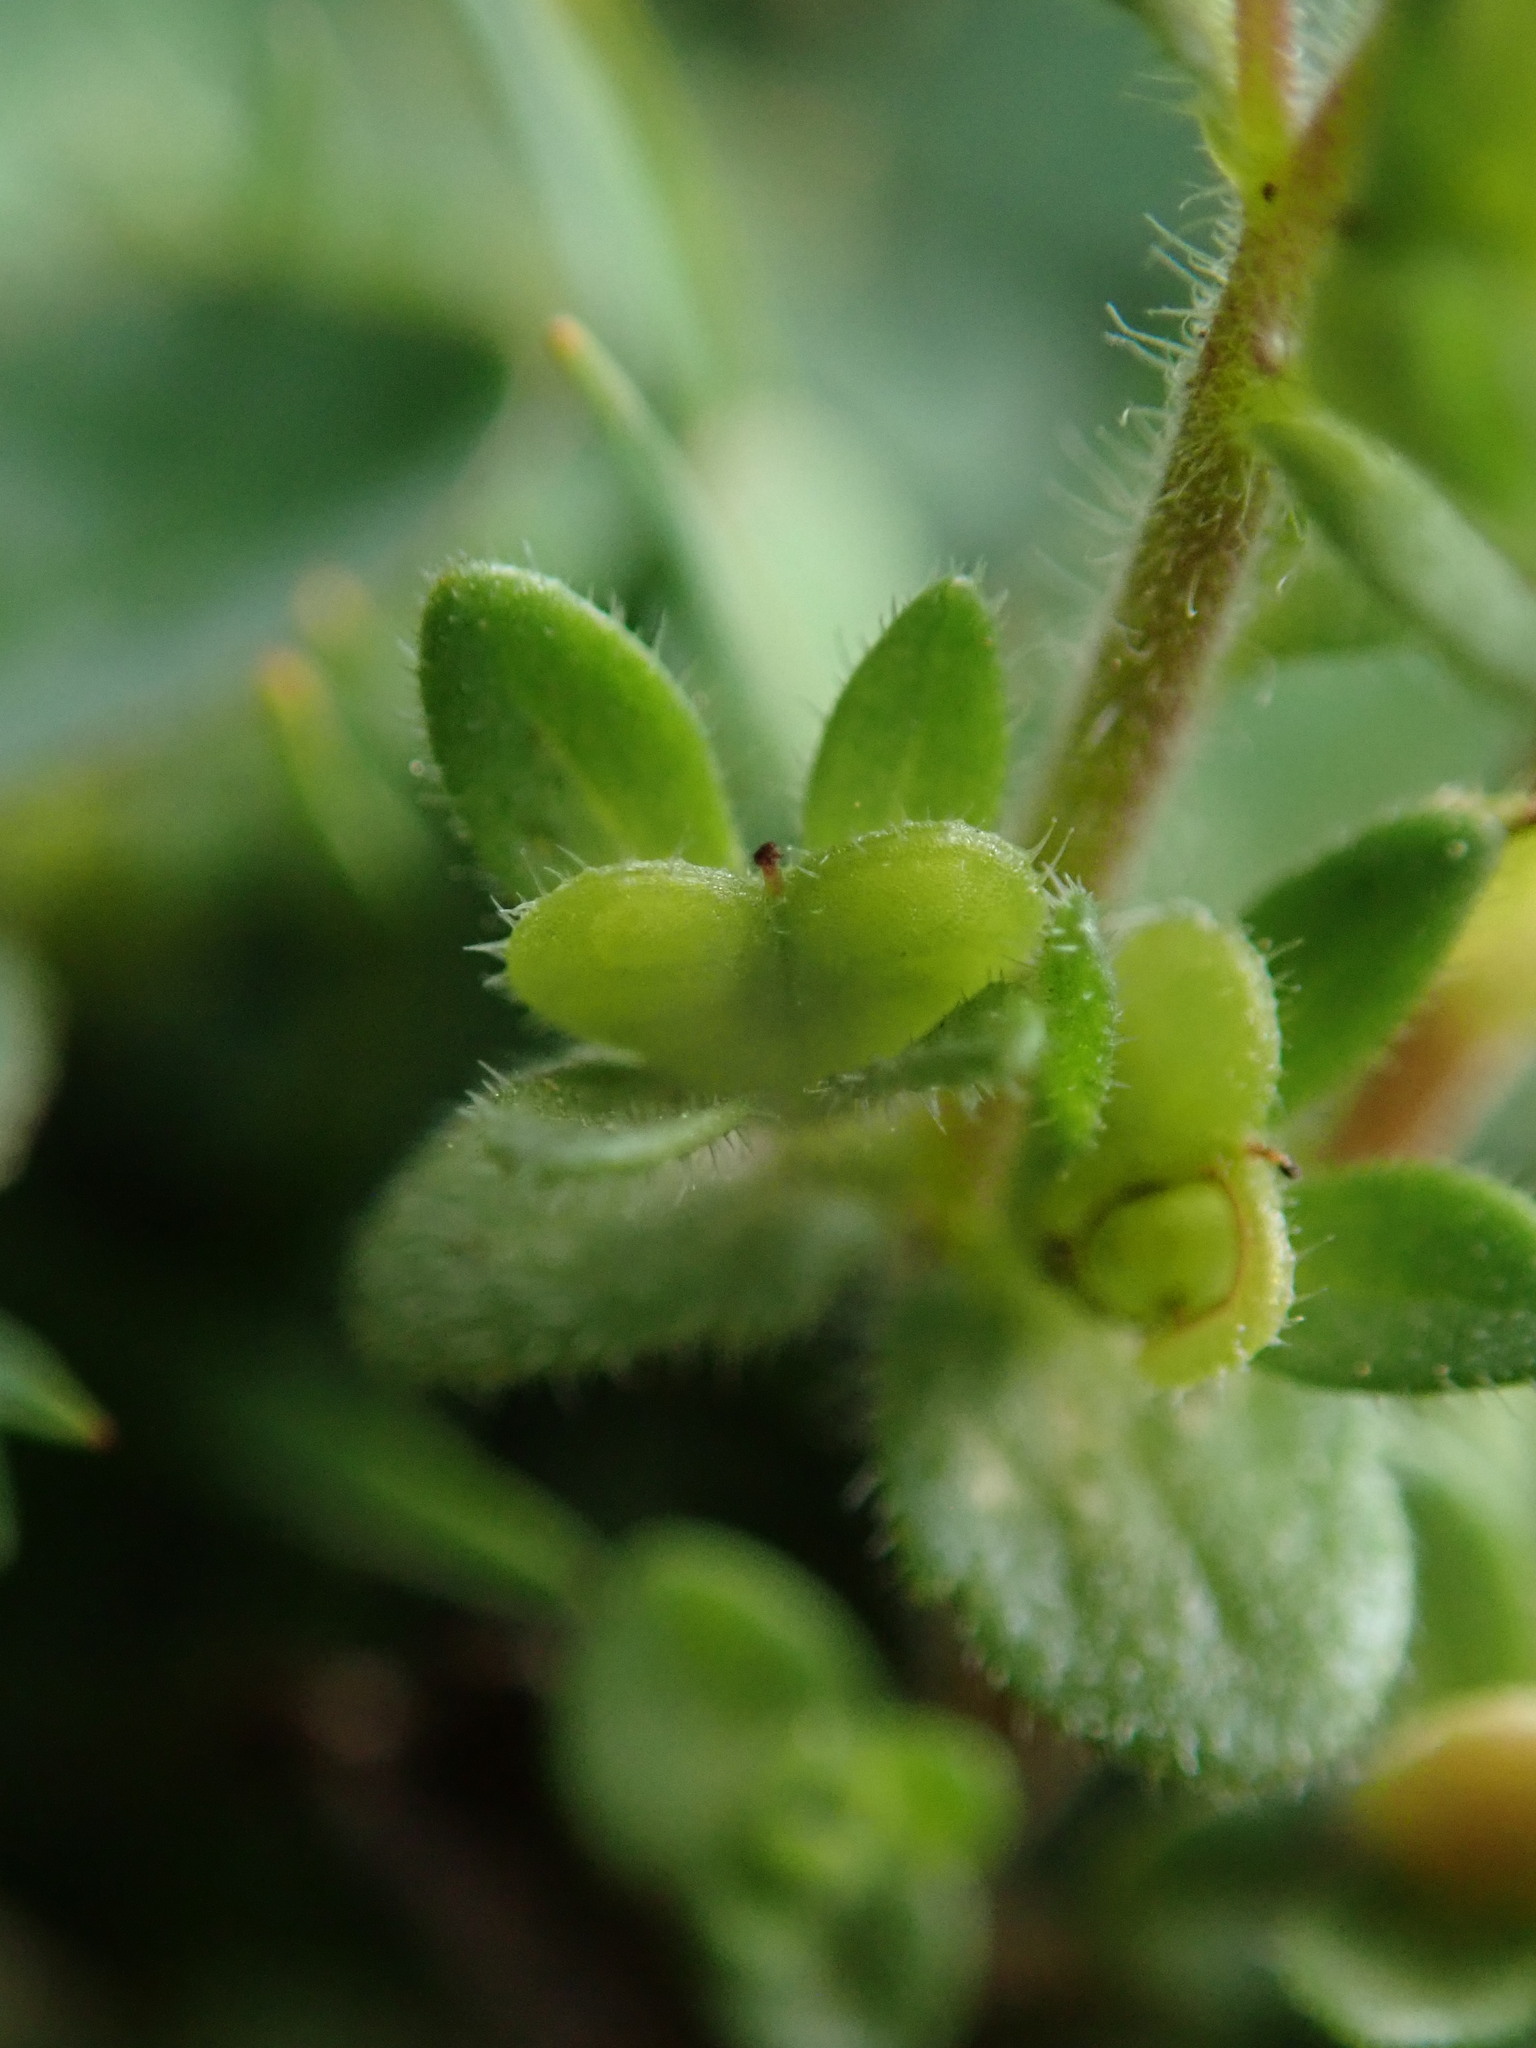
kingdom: Plantae
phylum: Tracheophyta
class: Magnoliopsida
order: Lamiales
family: Plantaginaceae
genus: Veronica
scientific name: Veronica arvensis
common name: Corn speedwell
